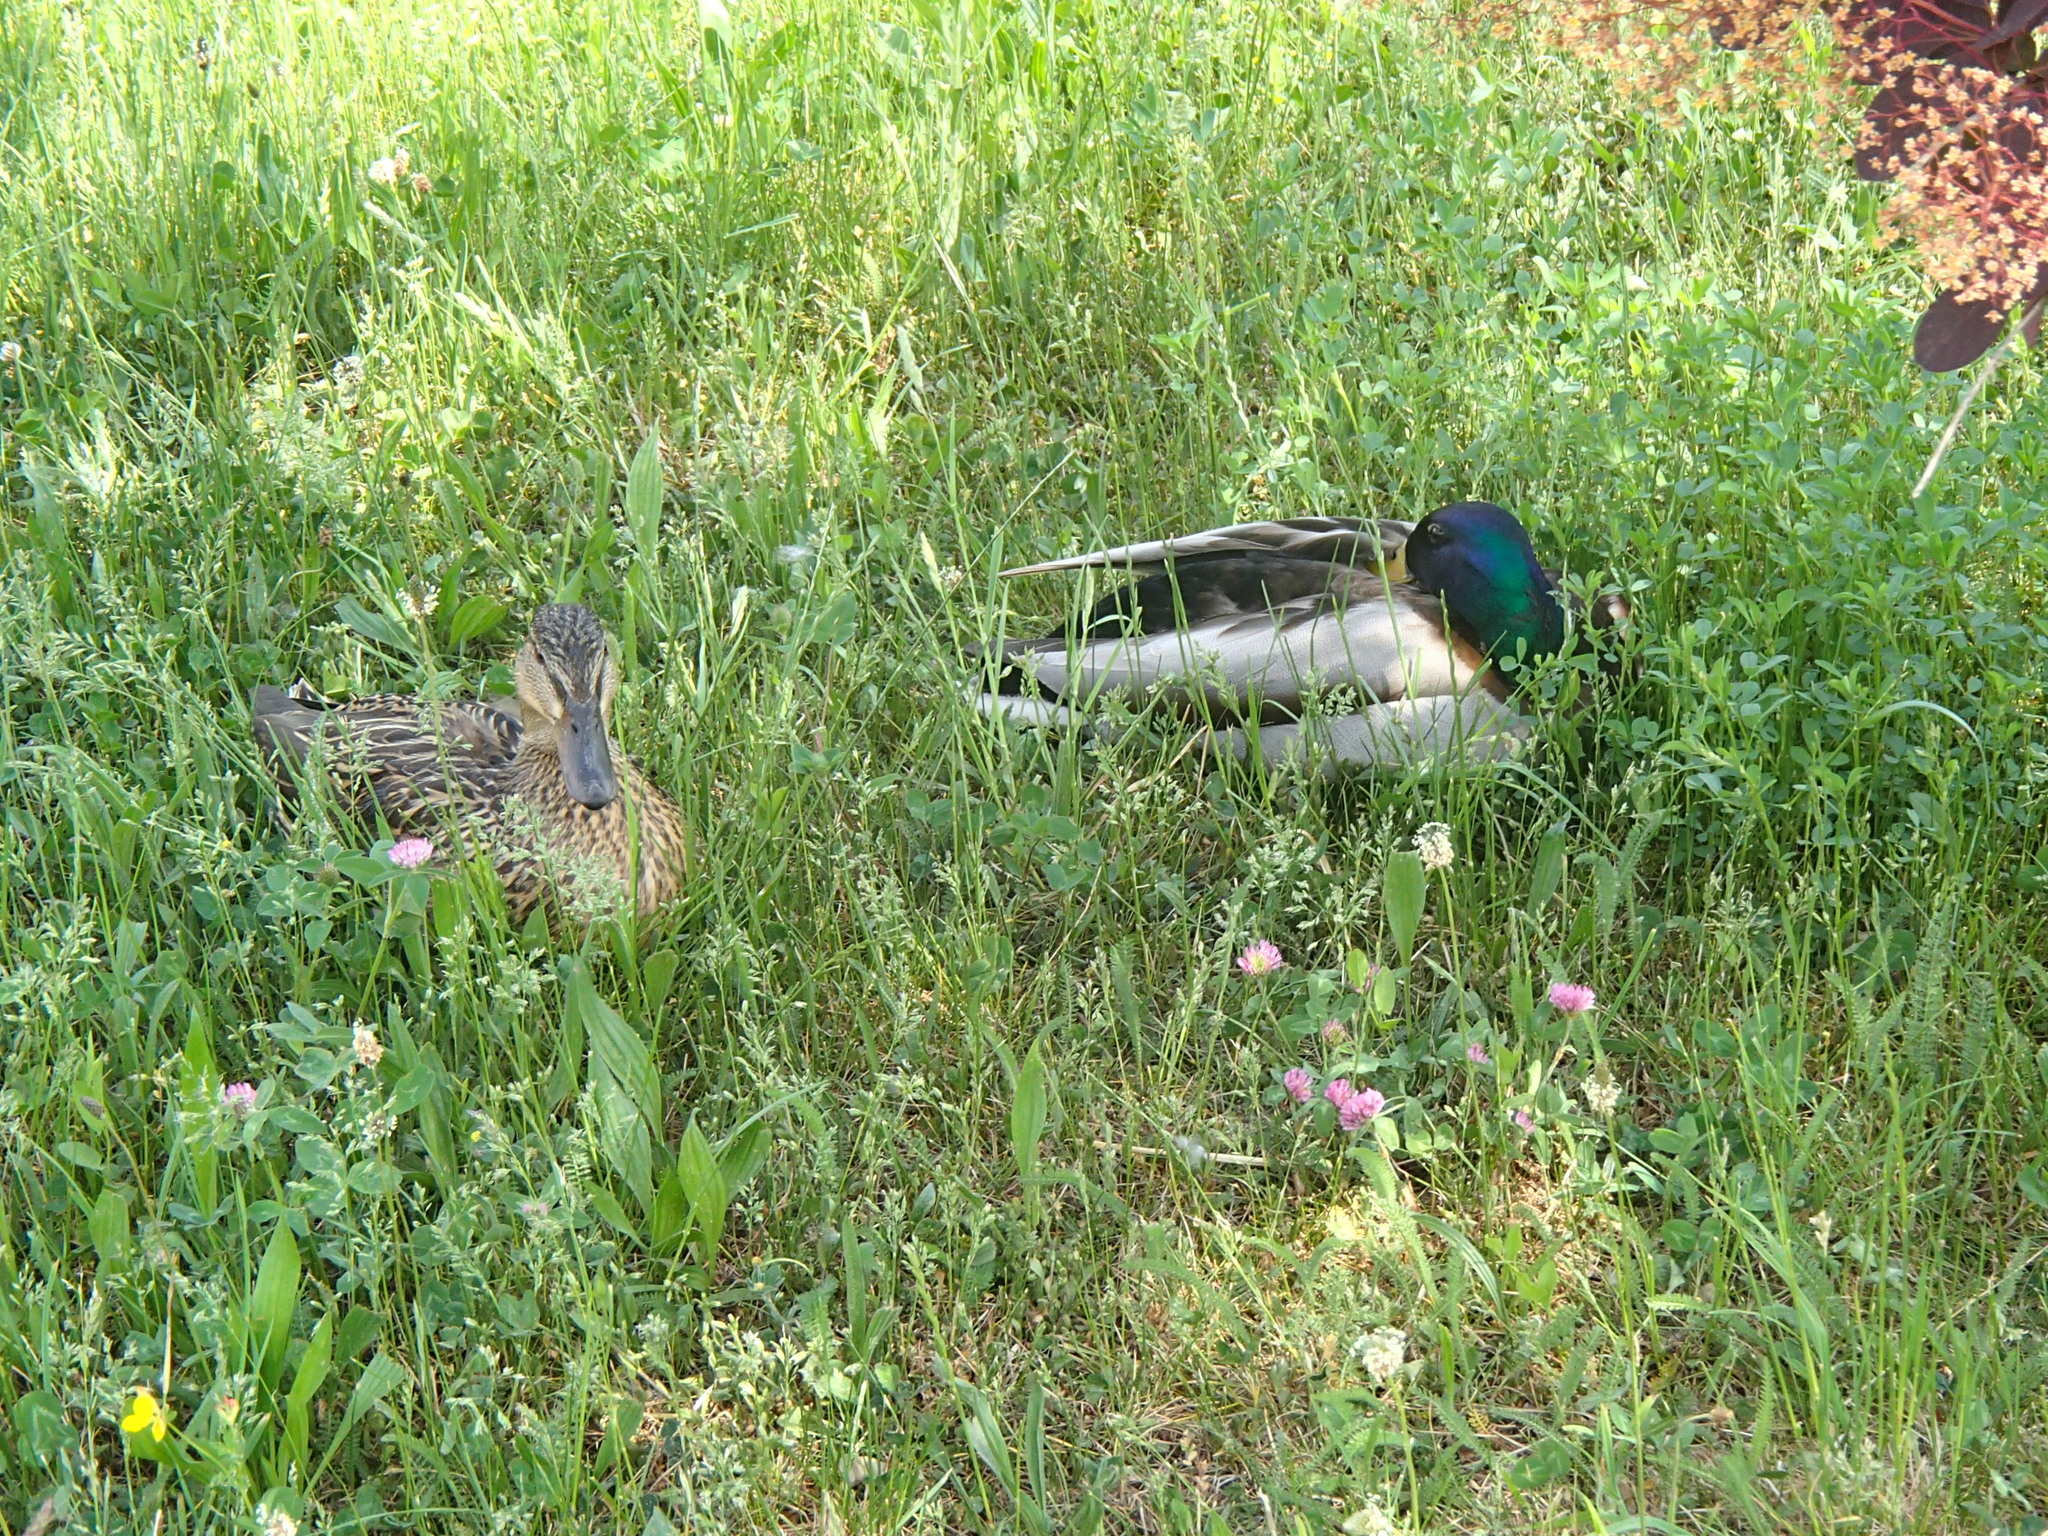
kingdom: Animalia
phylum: Chordata
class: Aves
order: Anseriformes
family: Anatidae
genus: Anas
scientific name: Anas platyrhynchos
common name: Mallard
